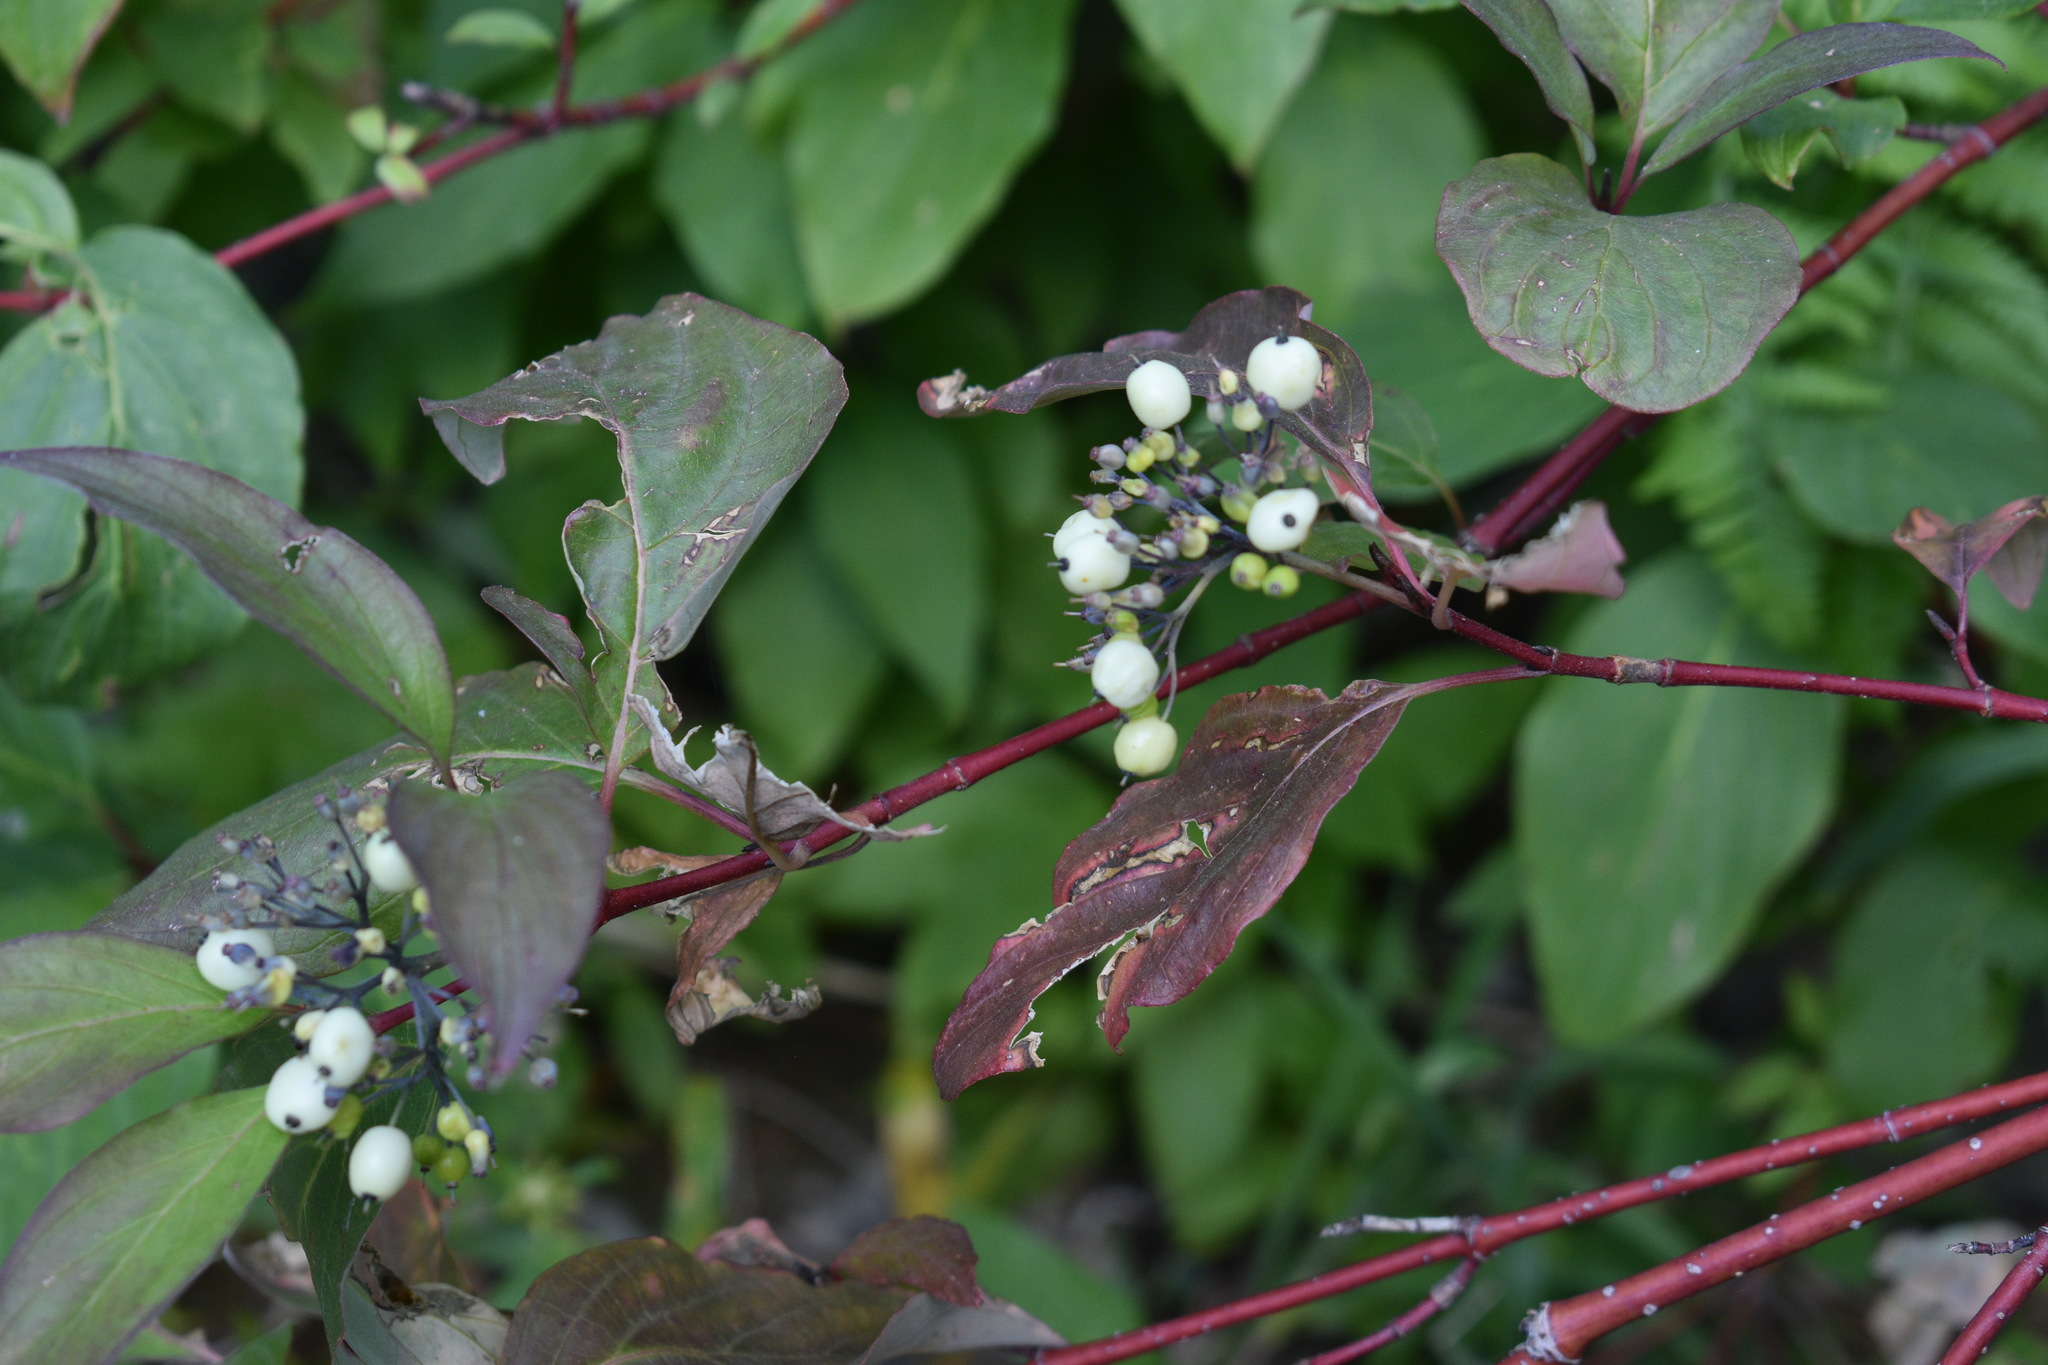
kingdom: Plantae
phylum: Tracheophyta
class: Magnoliopsida
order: Cornales
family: Cornaceae
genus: Cornus
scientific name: Cornus sericea
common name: Red-osier dogwood
